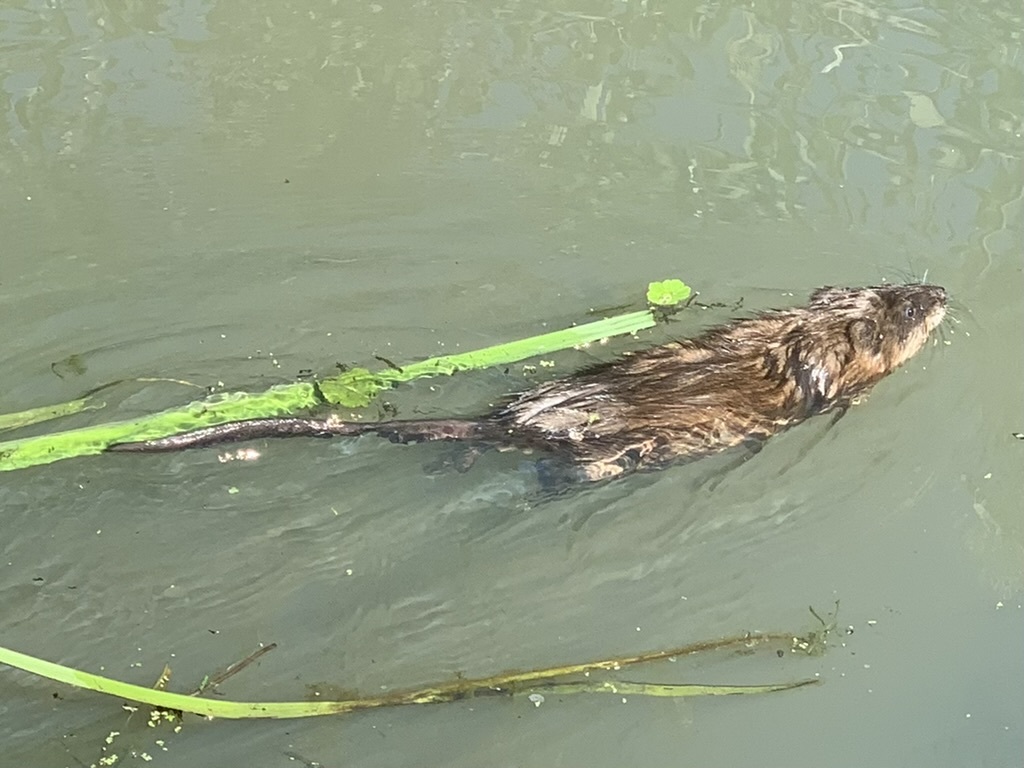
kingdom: Animalia
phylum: Chordata
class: Mammalia
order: Rodentia
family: Cricetidae
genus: Ondatra
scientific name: Ondatra zibethicus
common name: Muskrat
